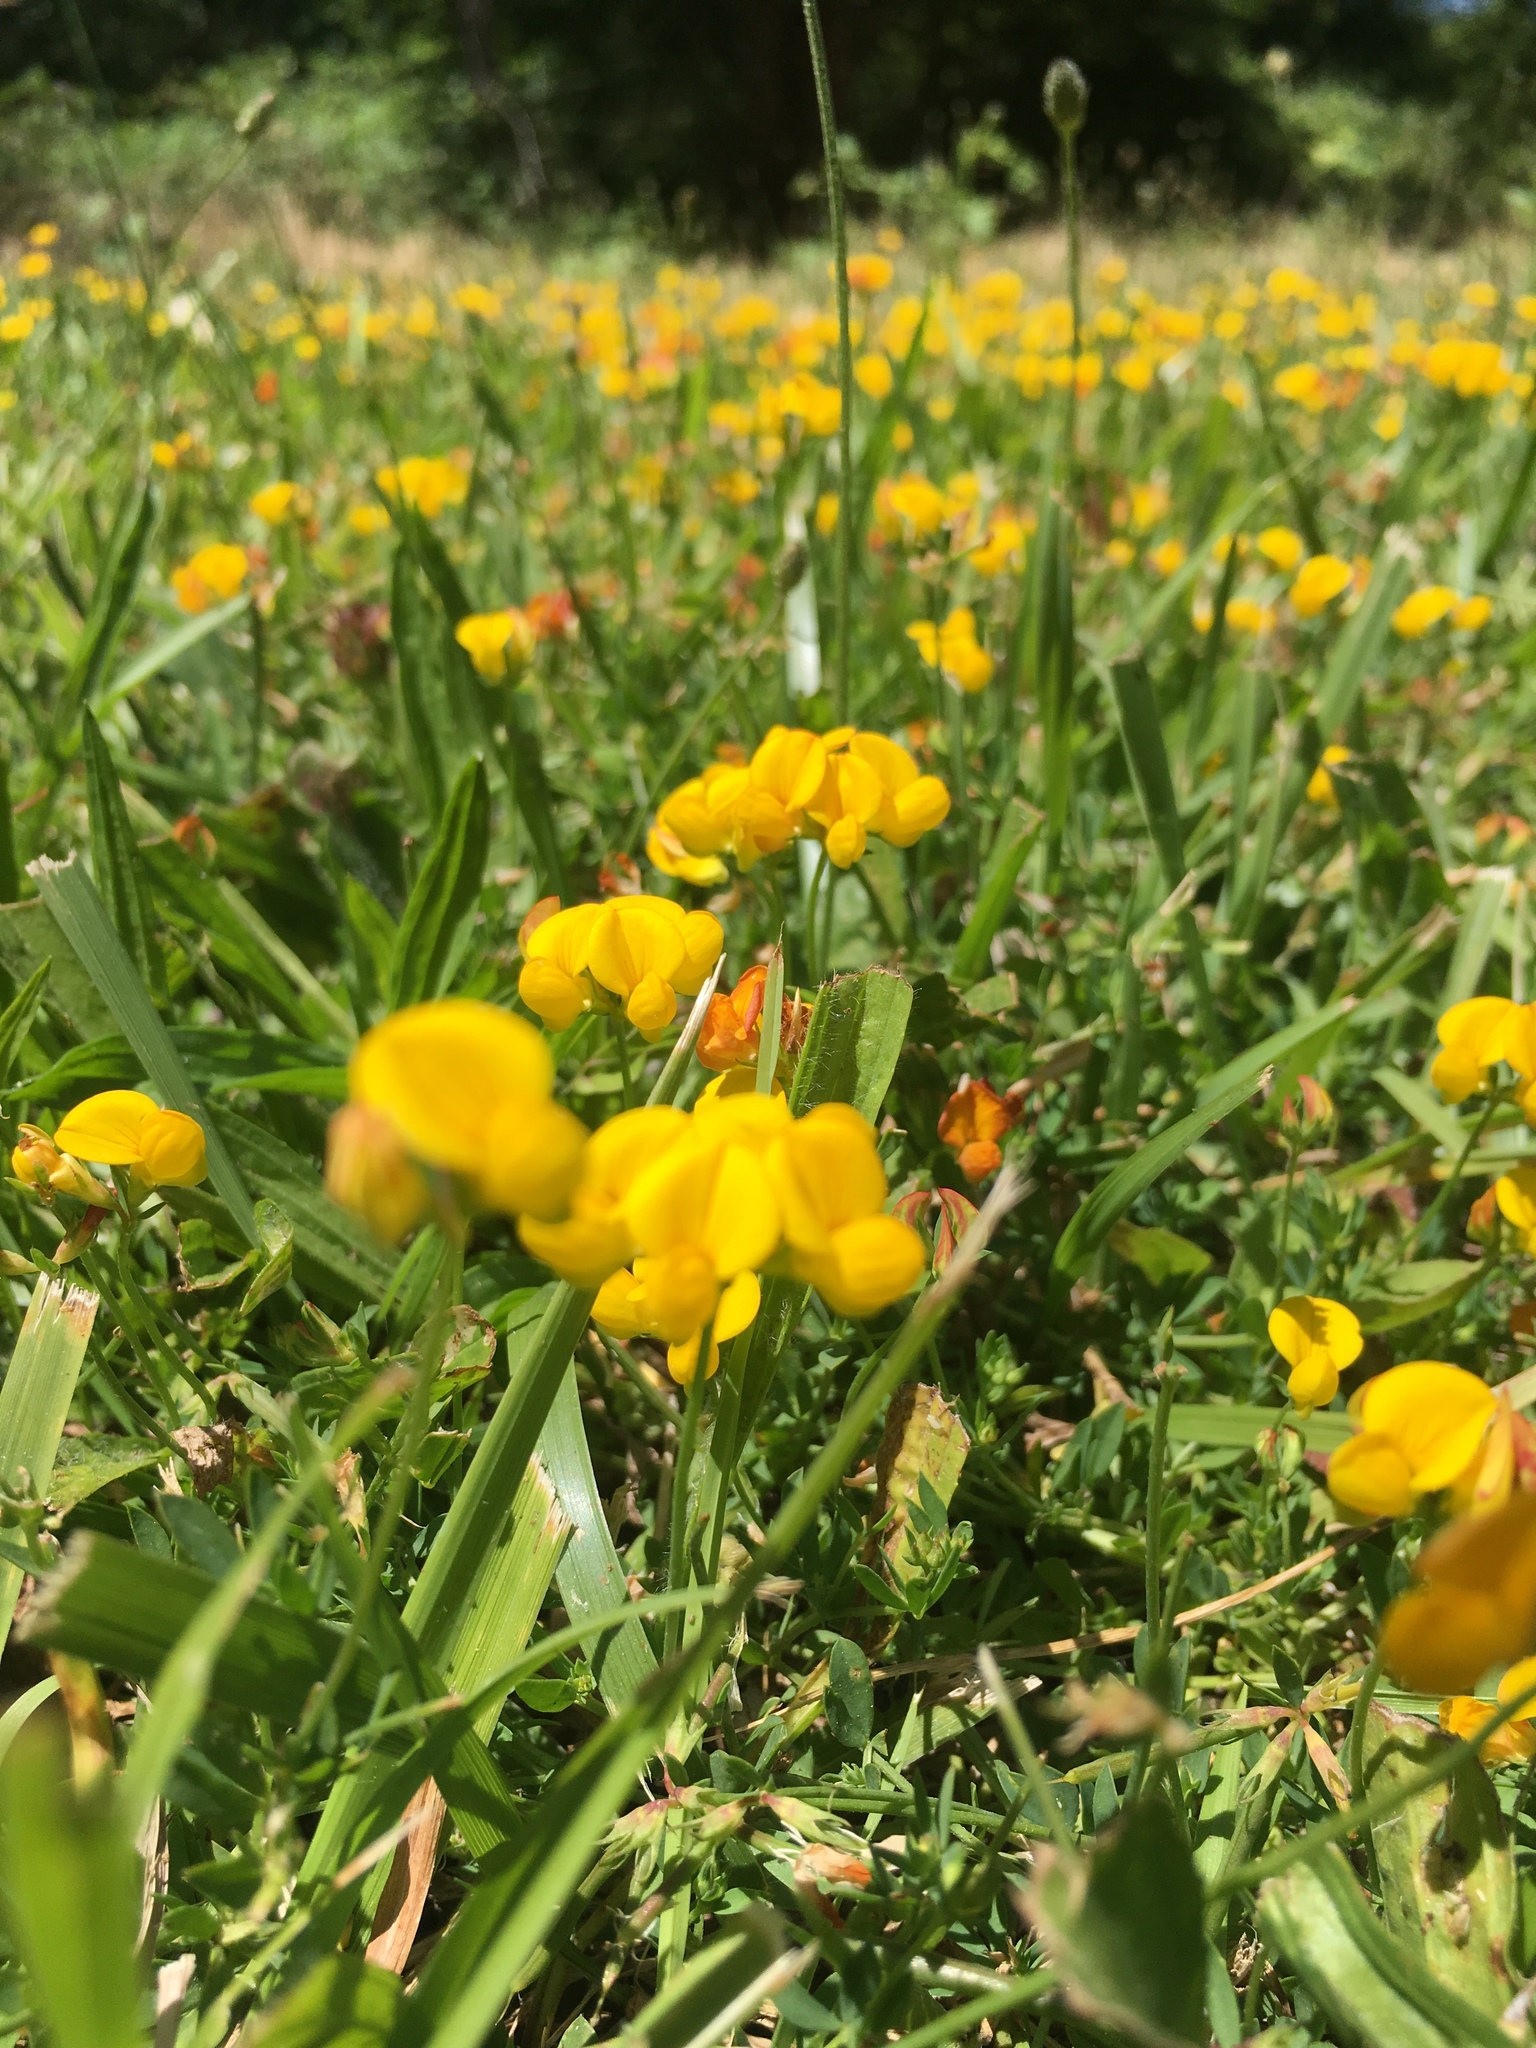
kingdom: Plantae
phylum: Tracheophyta
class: Magnoliopsida
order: Fabales
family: Fabaceae
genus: Lotus
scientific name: Lotus corniculatus
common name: Common bird's-foot-trefoil
